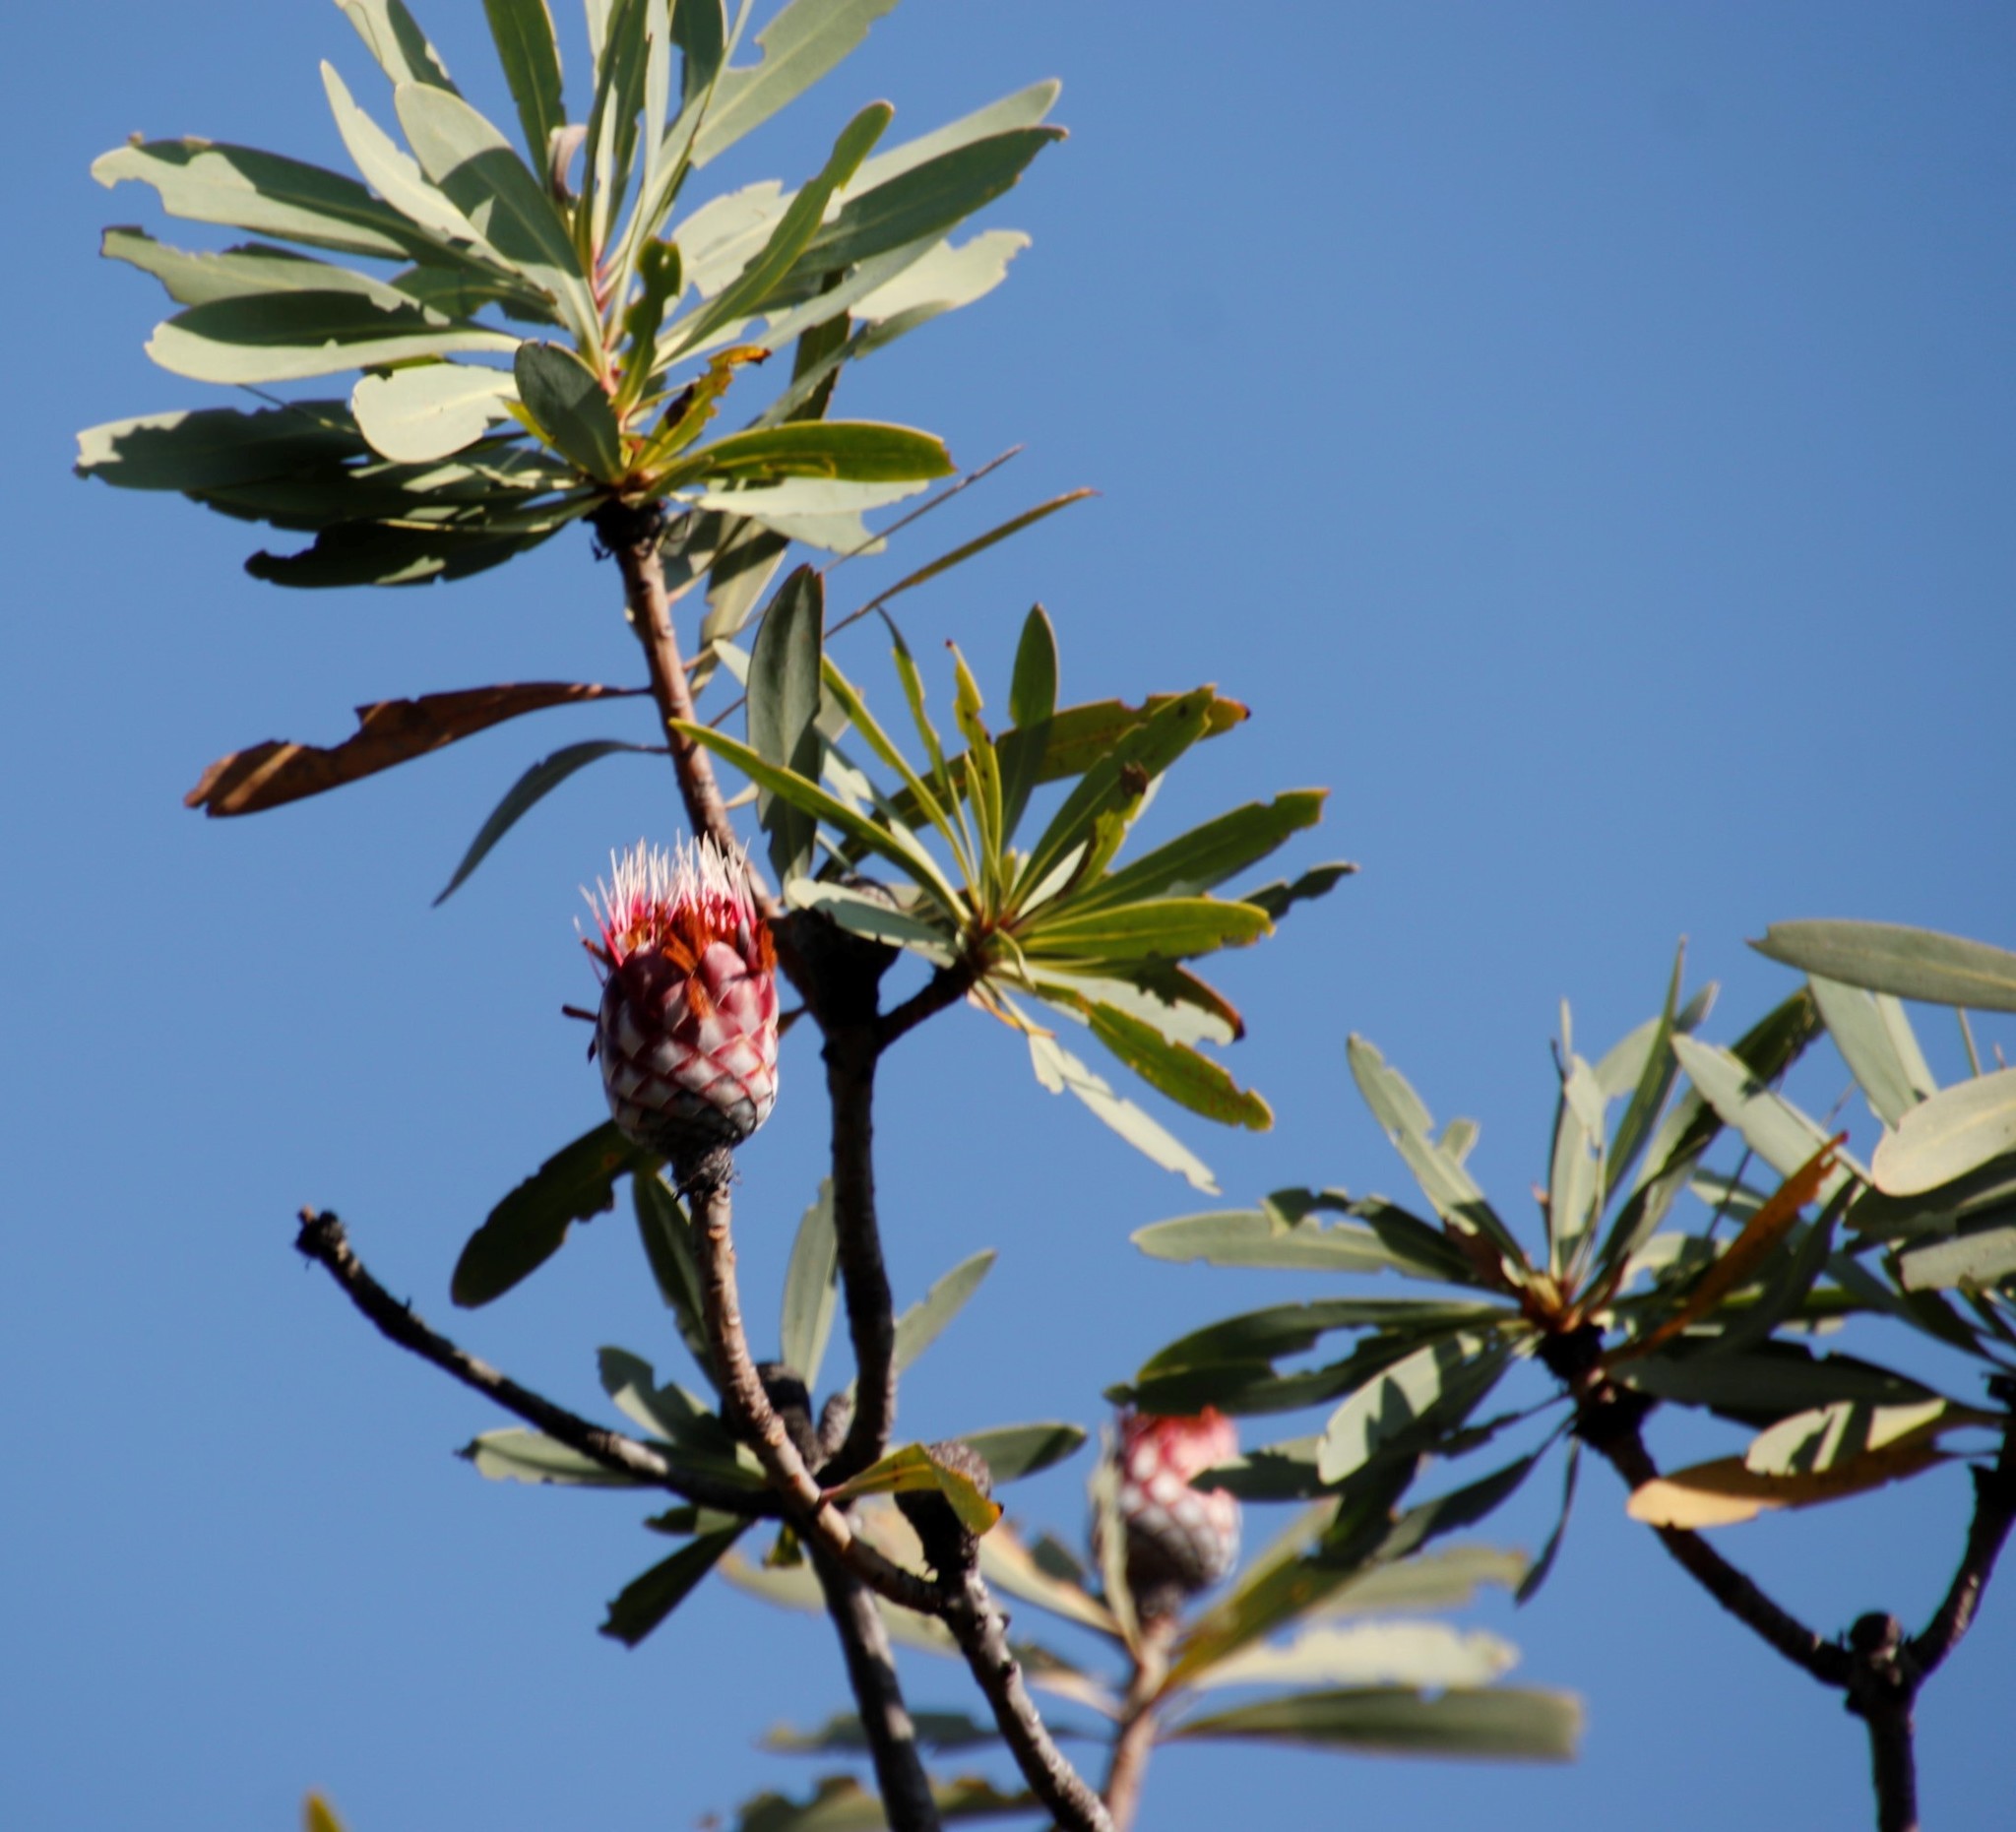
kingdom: Plantae
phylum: Tracheophyta
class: Magnoliopsida
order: Proteales
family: Proteaceae
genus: Protea
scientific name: Protea laetans
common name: Blyde protea
